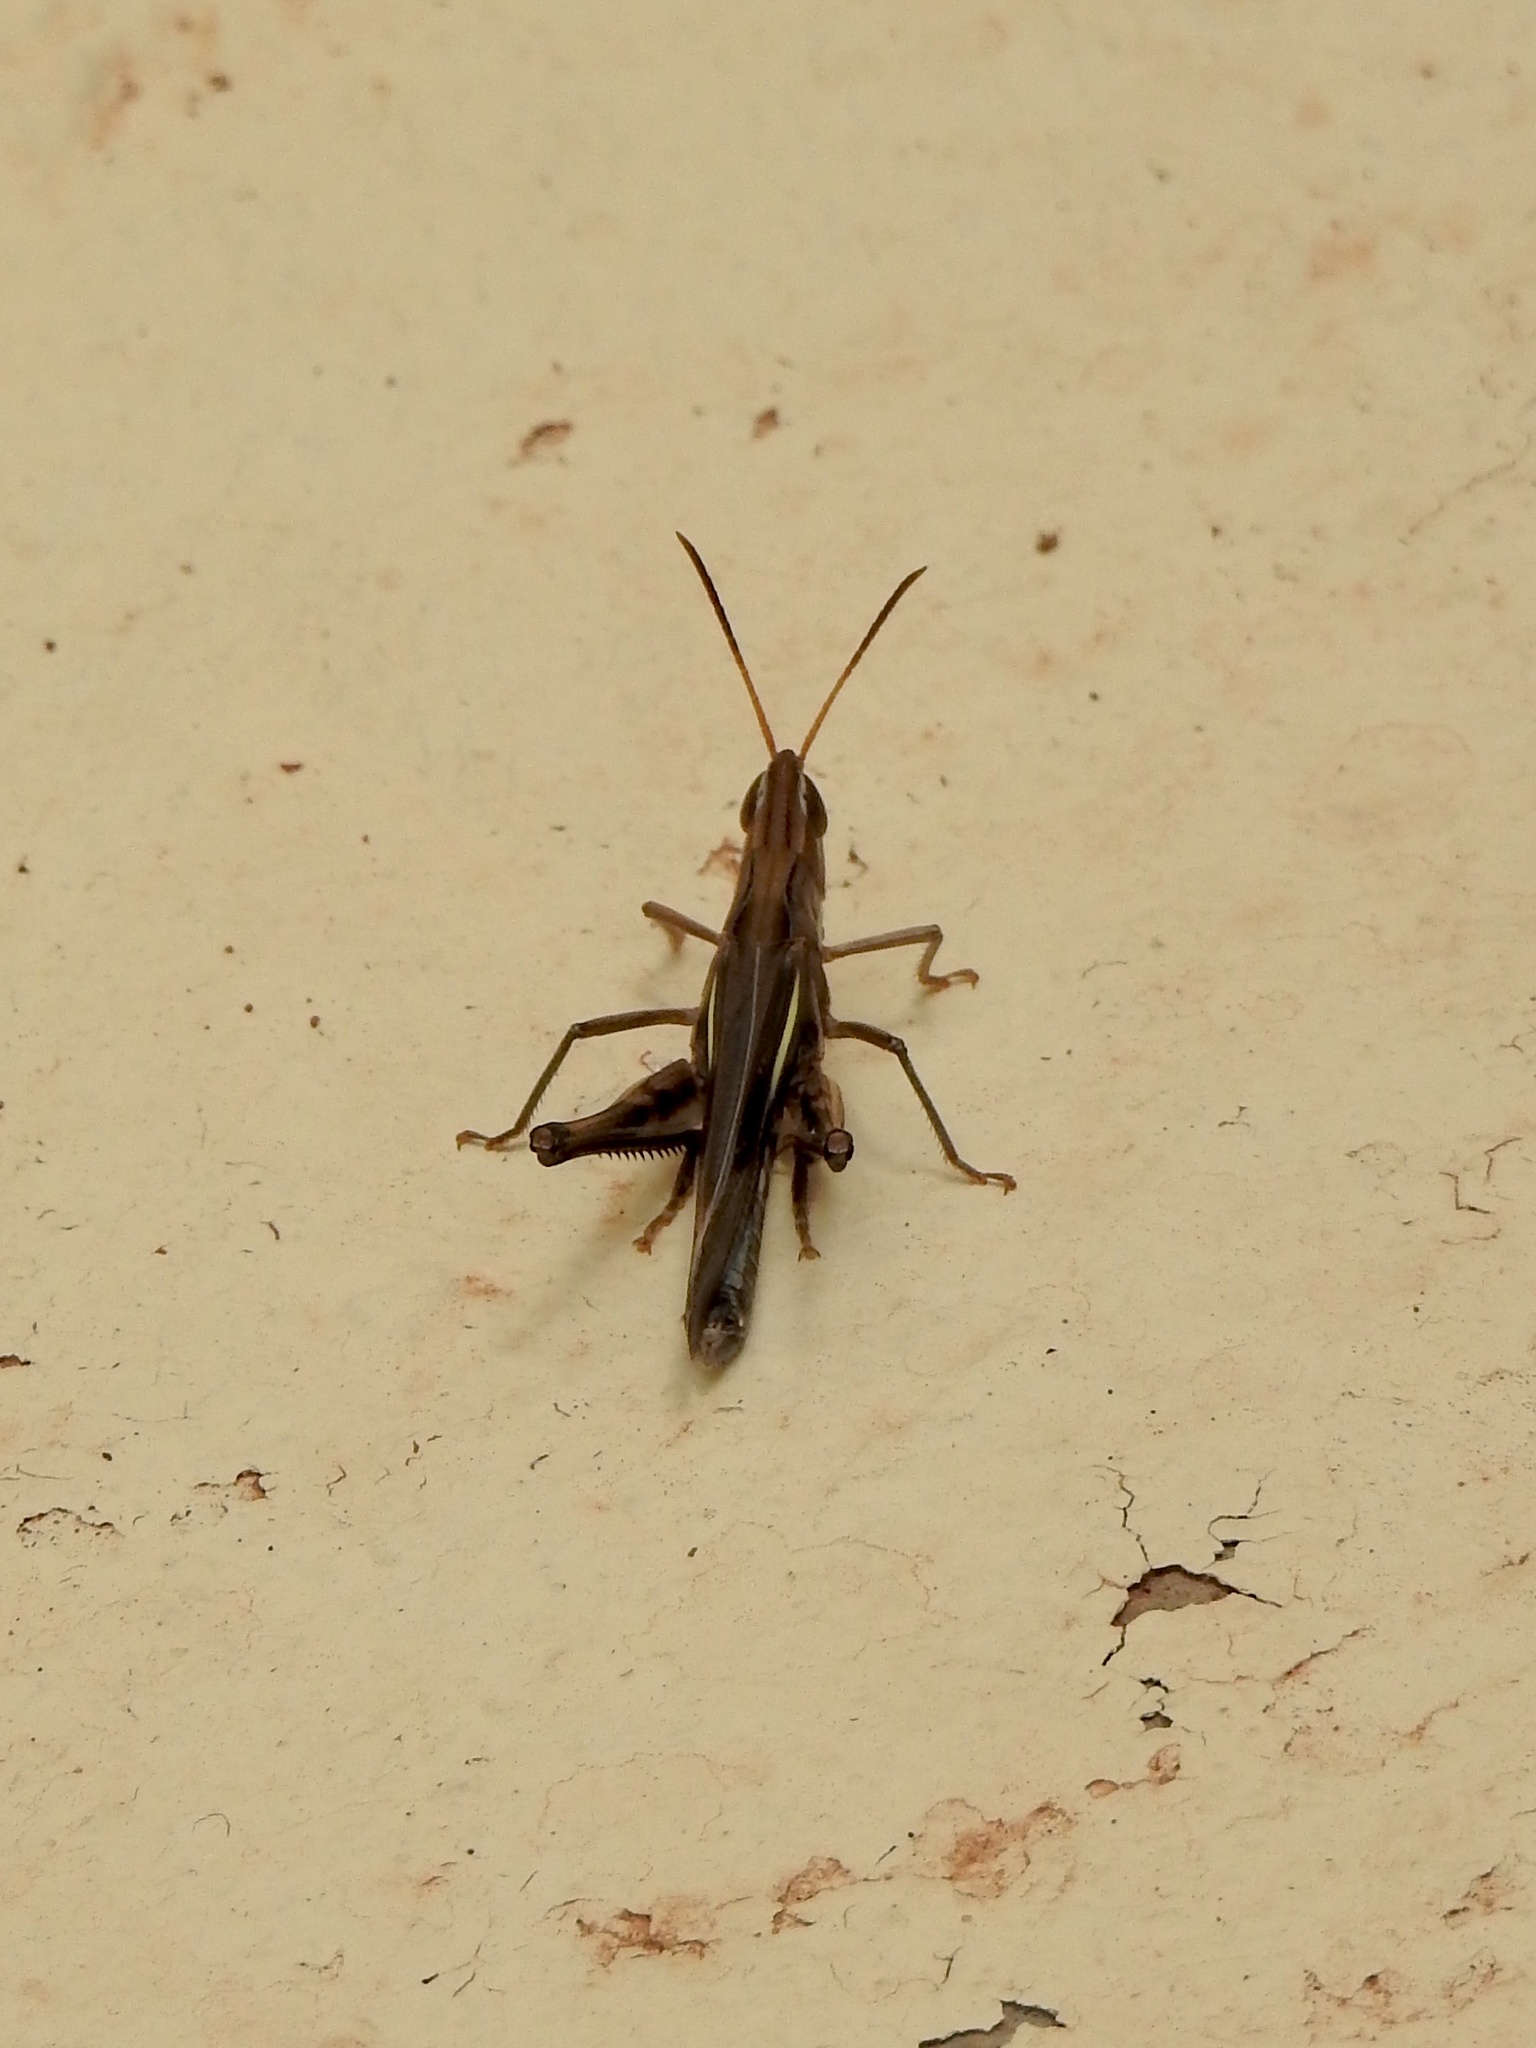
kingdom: Animalia
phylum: Arthropoda
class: Insecta
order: Orthoptera
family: Acrididae
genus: Syrbula
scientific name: Syrbula montezuma
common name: Montezuma's grasshopper
